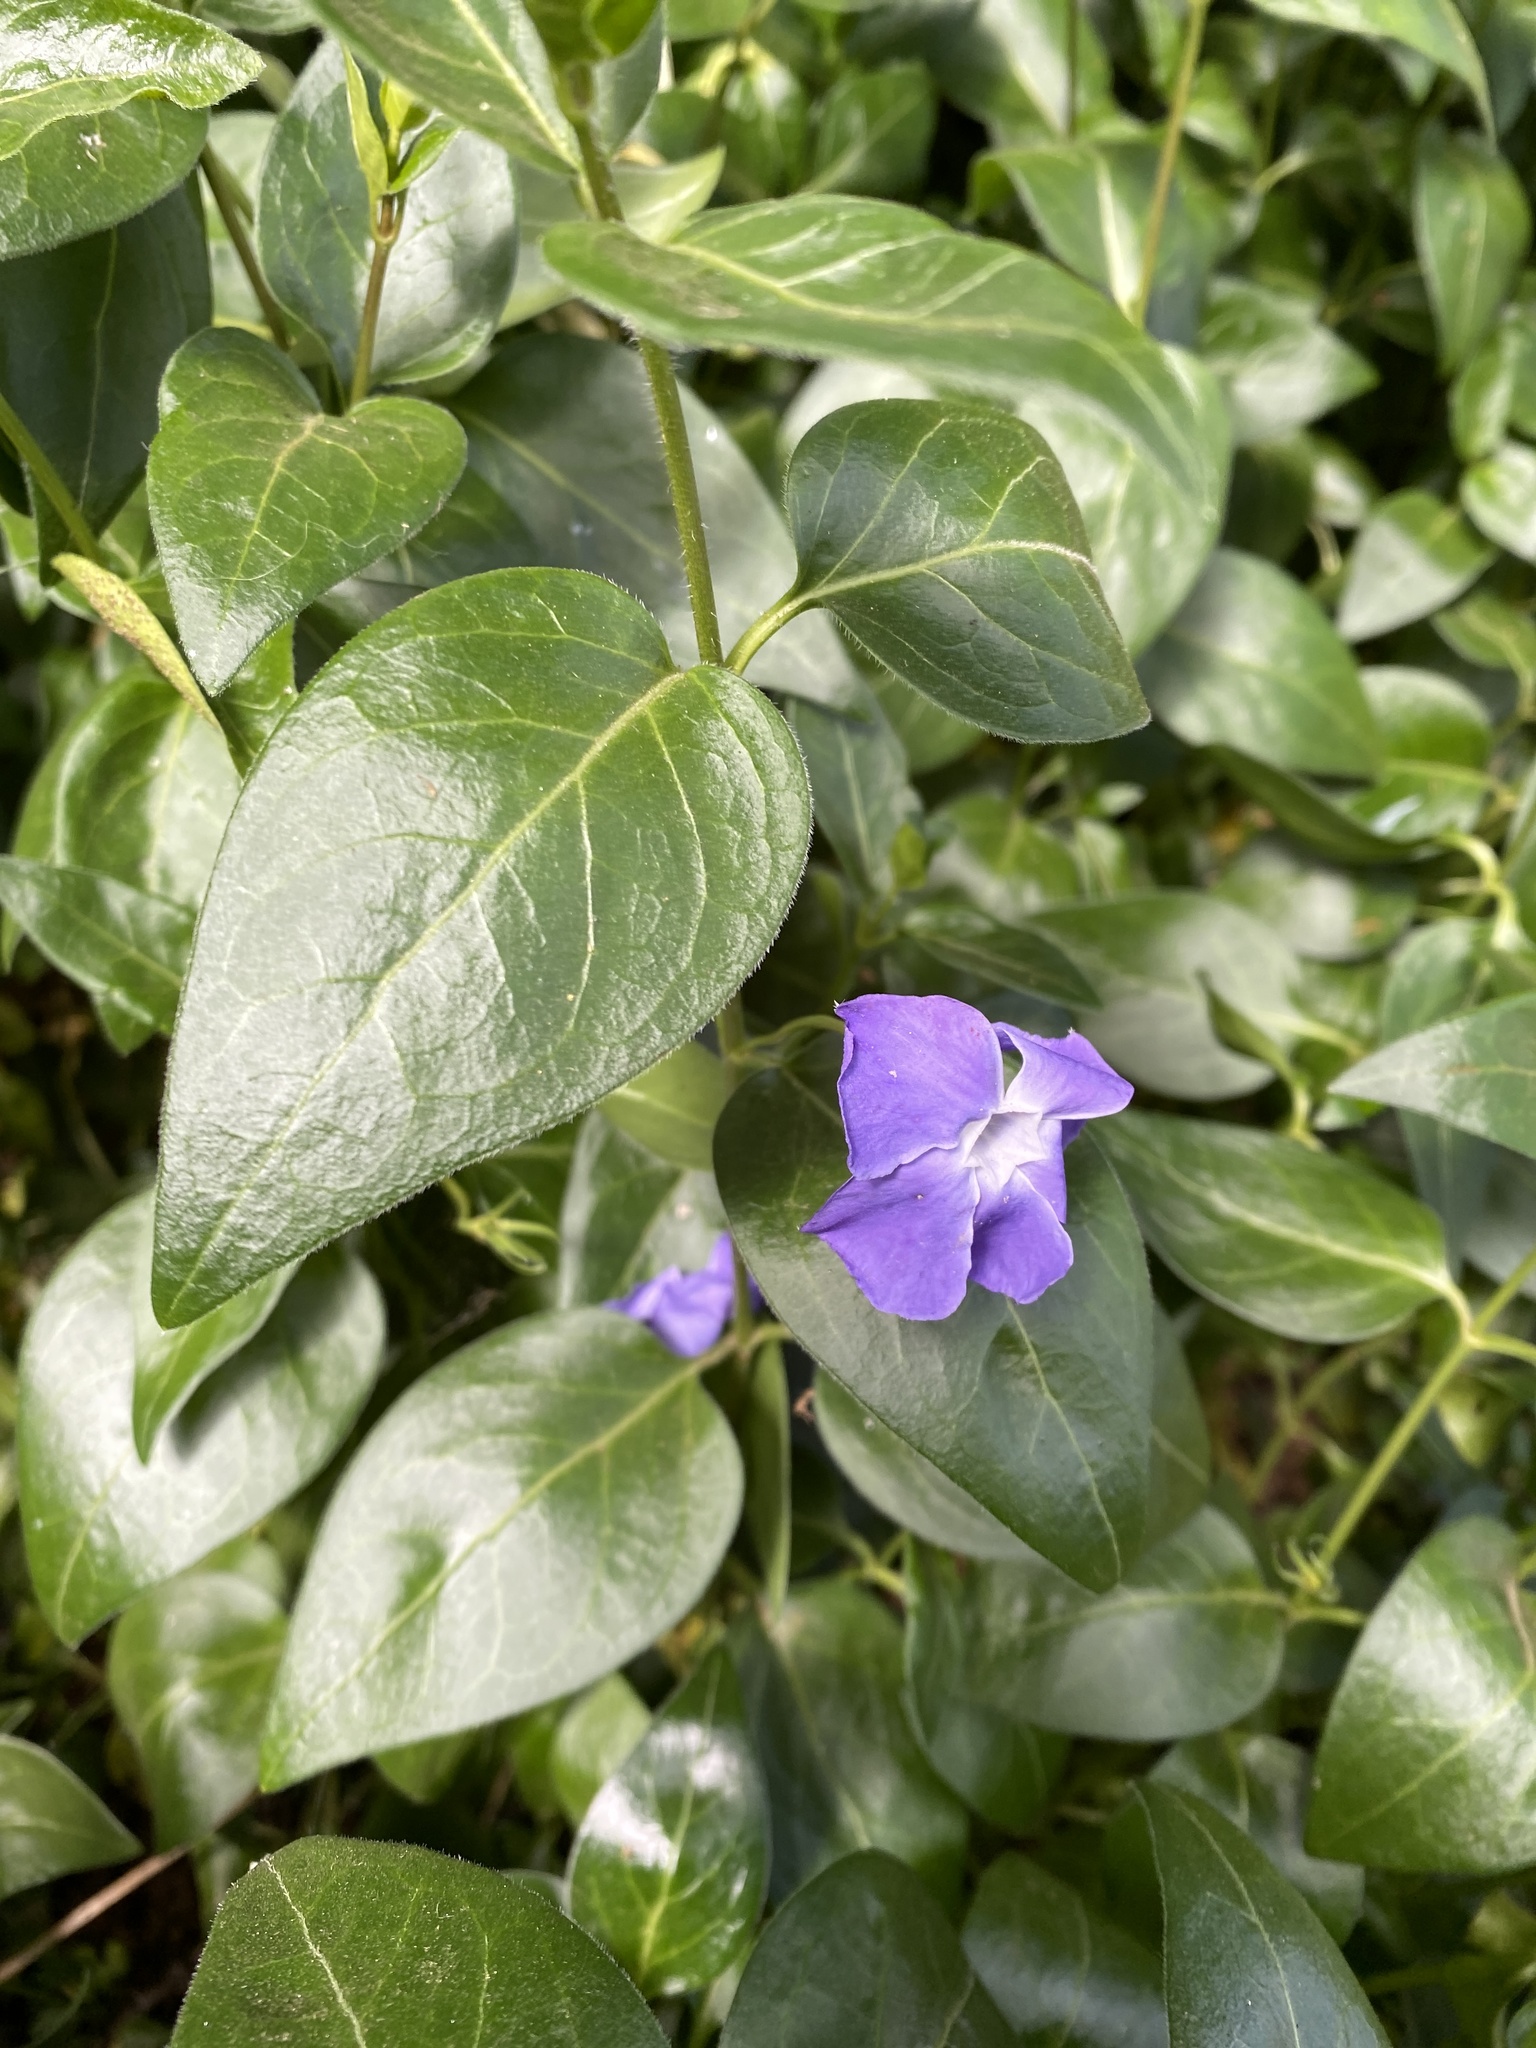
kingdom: Plantae
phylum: Tracheophyta
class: Magnoliopsida
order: Gentianales
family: Apocynaceae
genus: Vinca
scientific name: Vinca major
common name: Greater periwinkle
